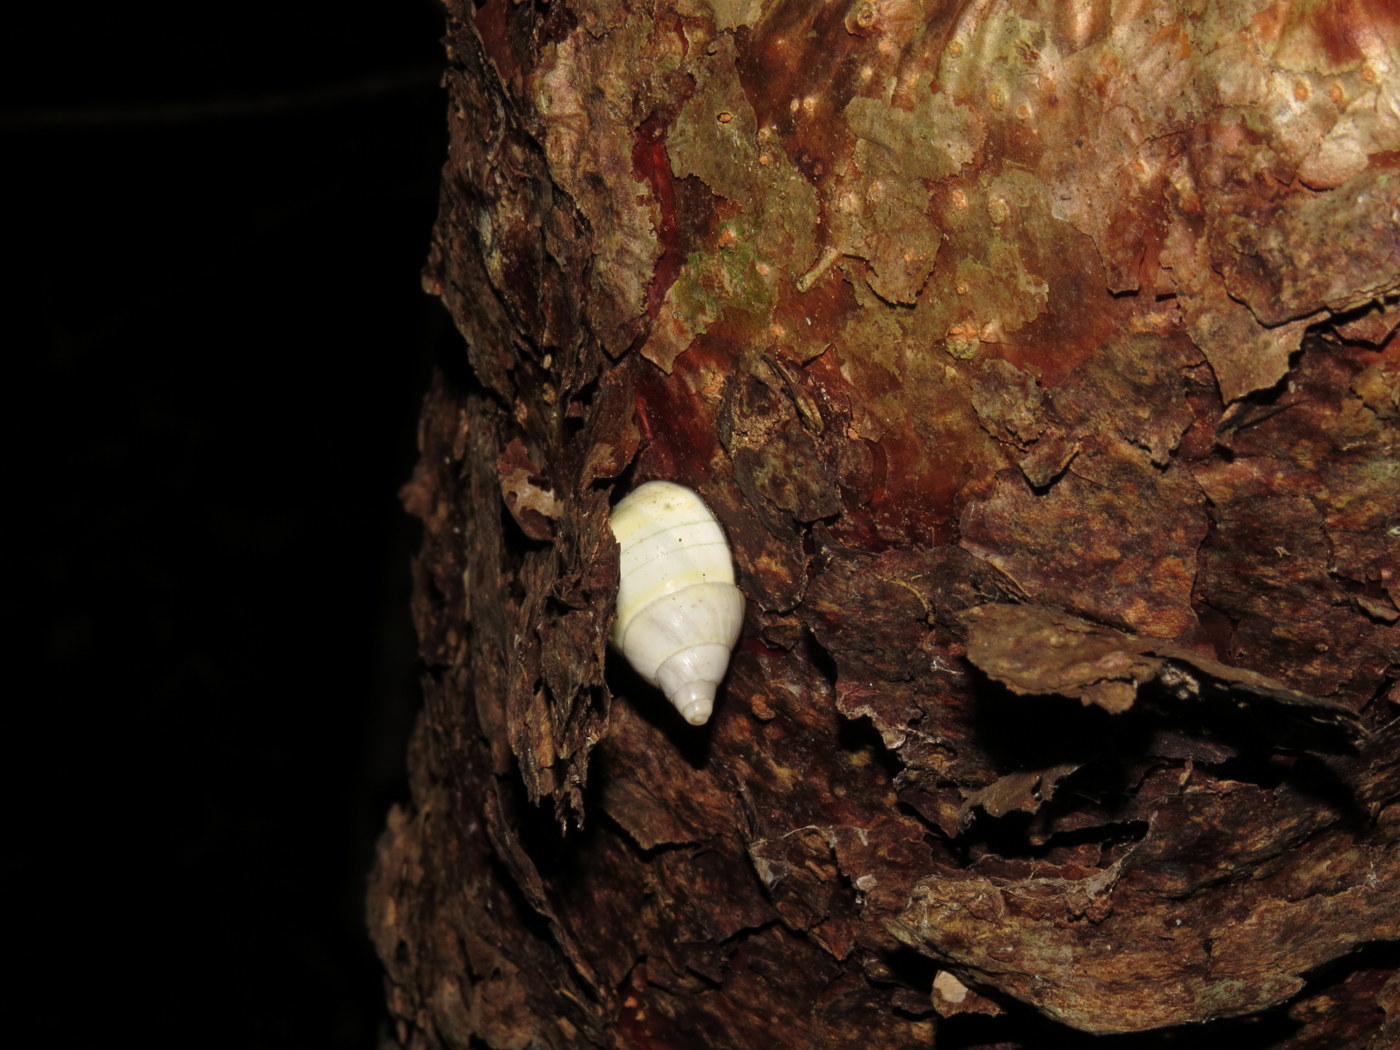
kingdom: Plantae
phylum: Tracheophyta
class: Magnoliopsida
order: Sapindales
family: Burseraceae
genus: Bursera
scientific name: Bursera simaruba
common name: Turpentine tree
